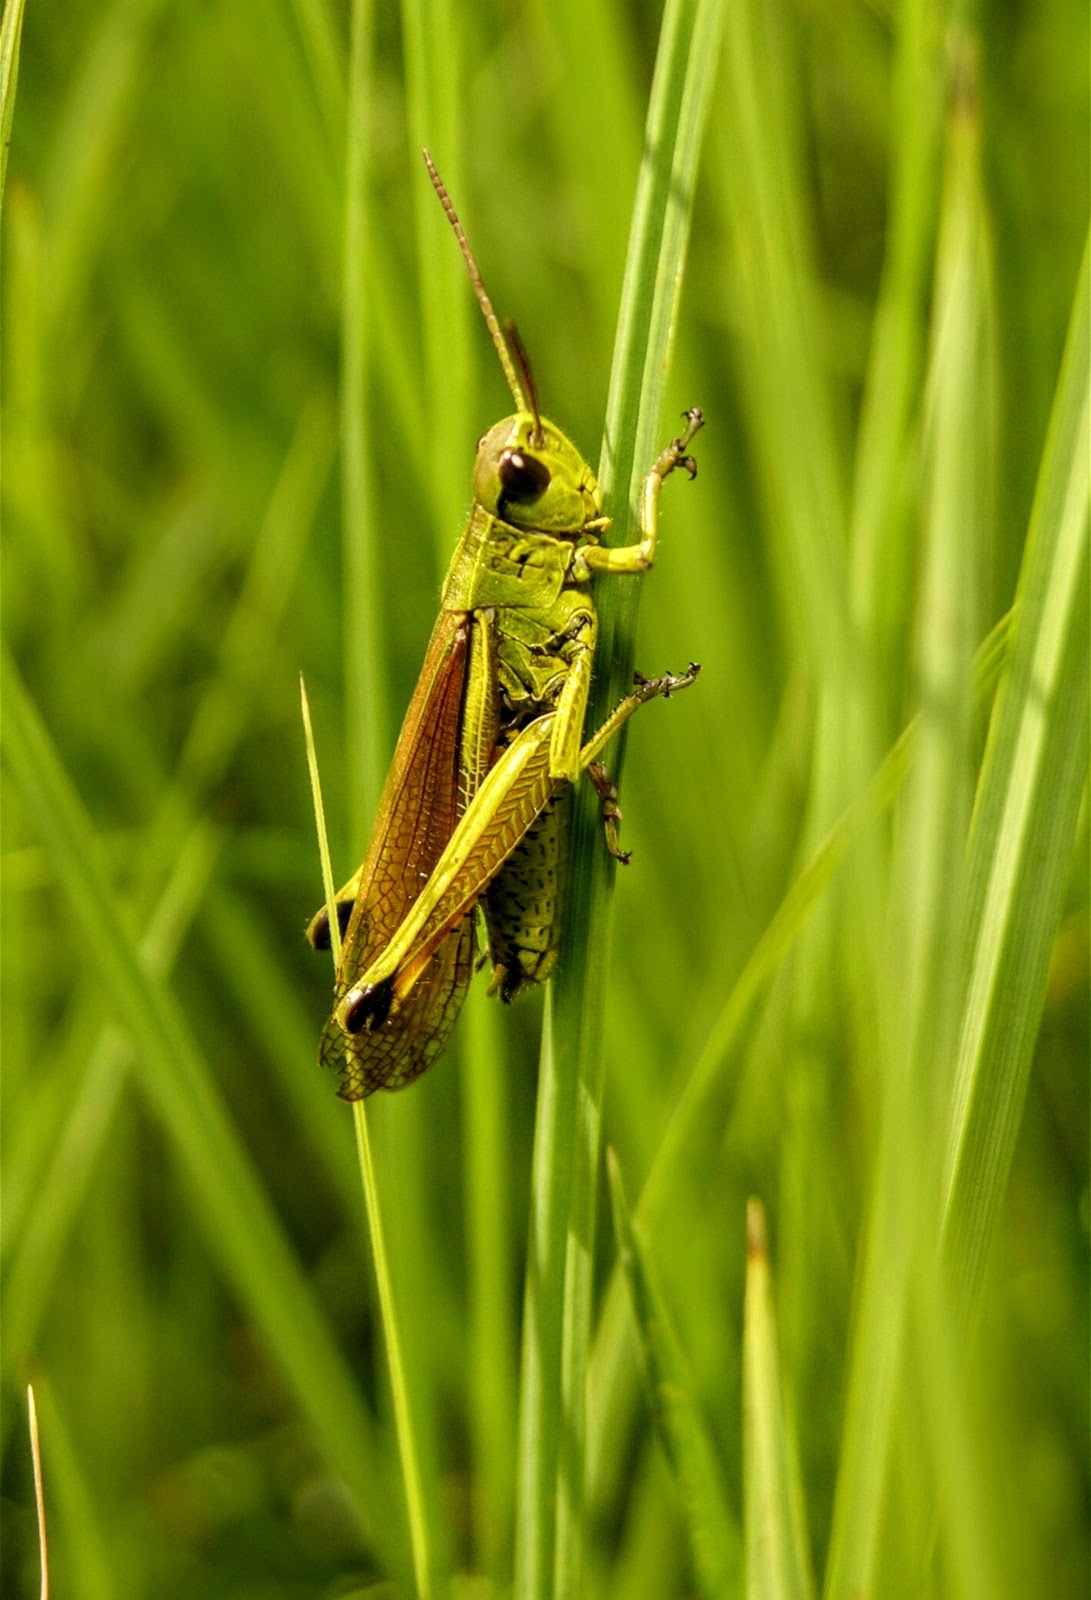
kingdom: Animalia
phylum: Arthropoda
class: Insecta
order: Orthoptera
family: Acrididae
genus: Stethophyma
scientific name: Stethophyma grossum
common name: Large marsh grasshopper
